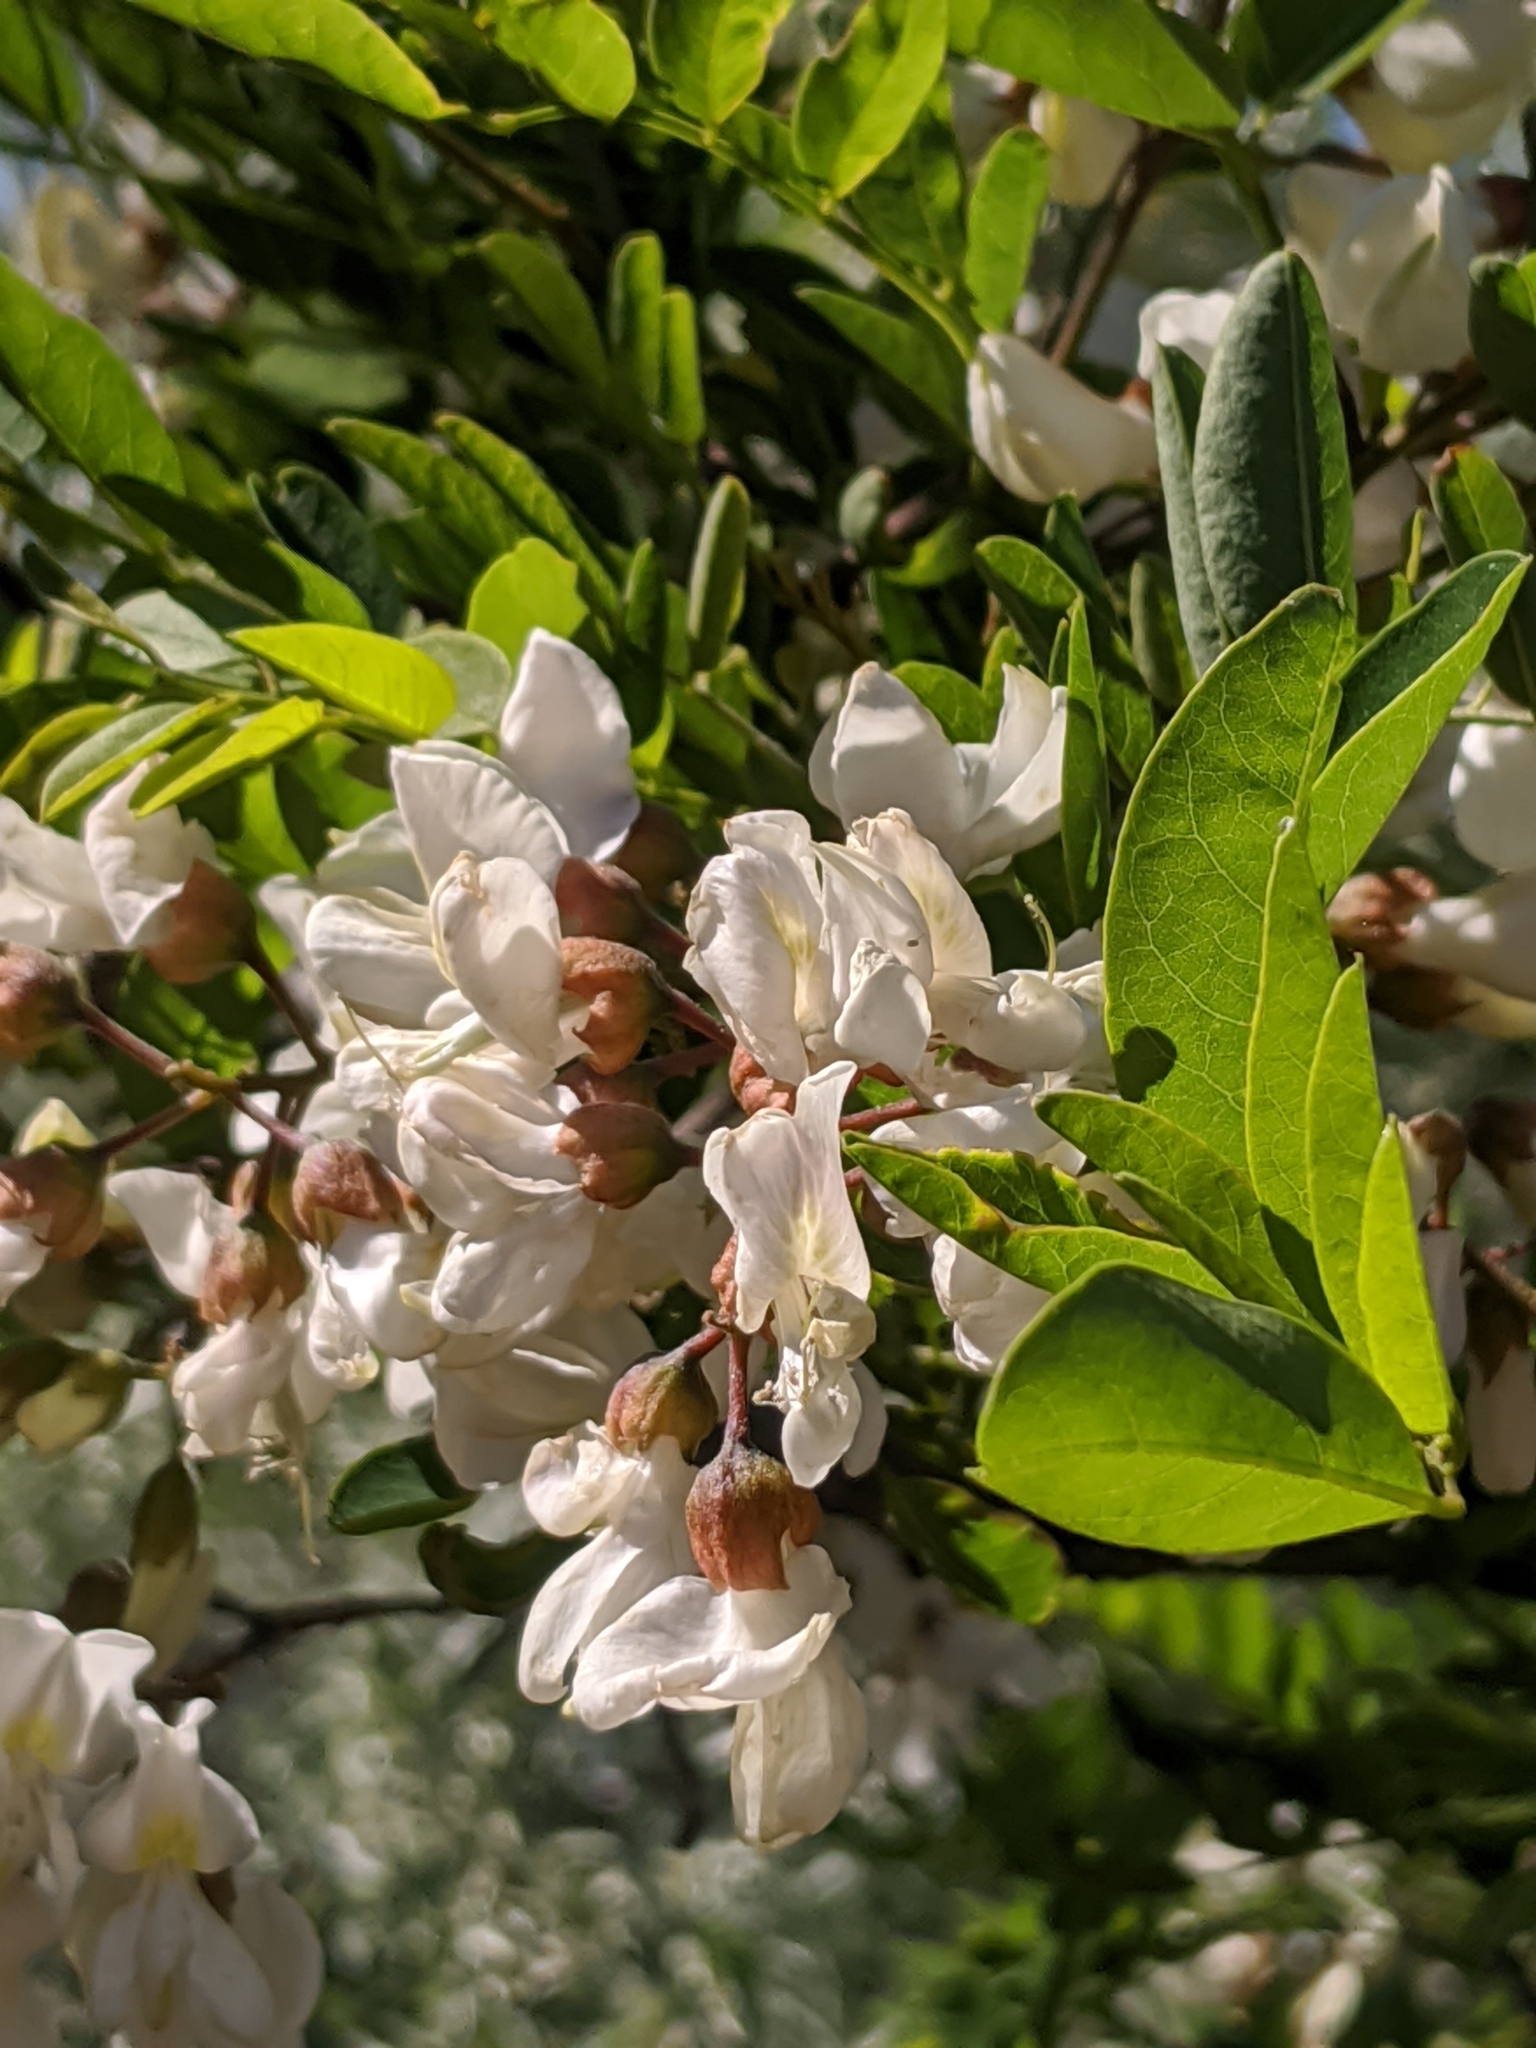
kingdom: Plantae
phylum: Tracheophyta
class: Magnoliopsida
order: Fabales
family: Fabaceae
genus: Robinia
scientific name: Robinia pseudoacacia
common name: Black locust
